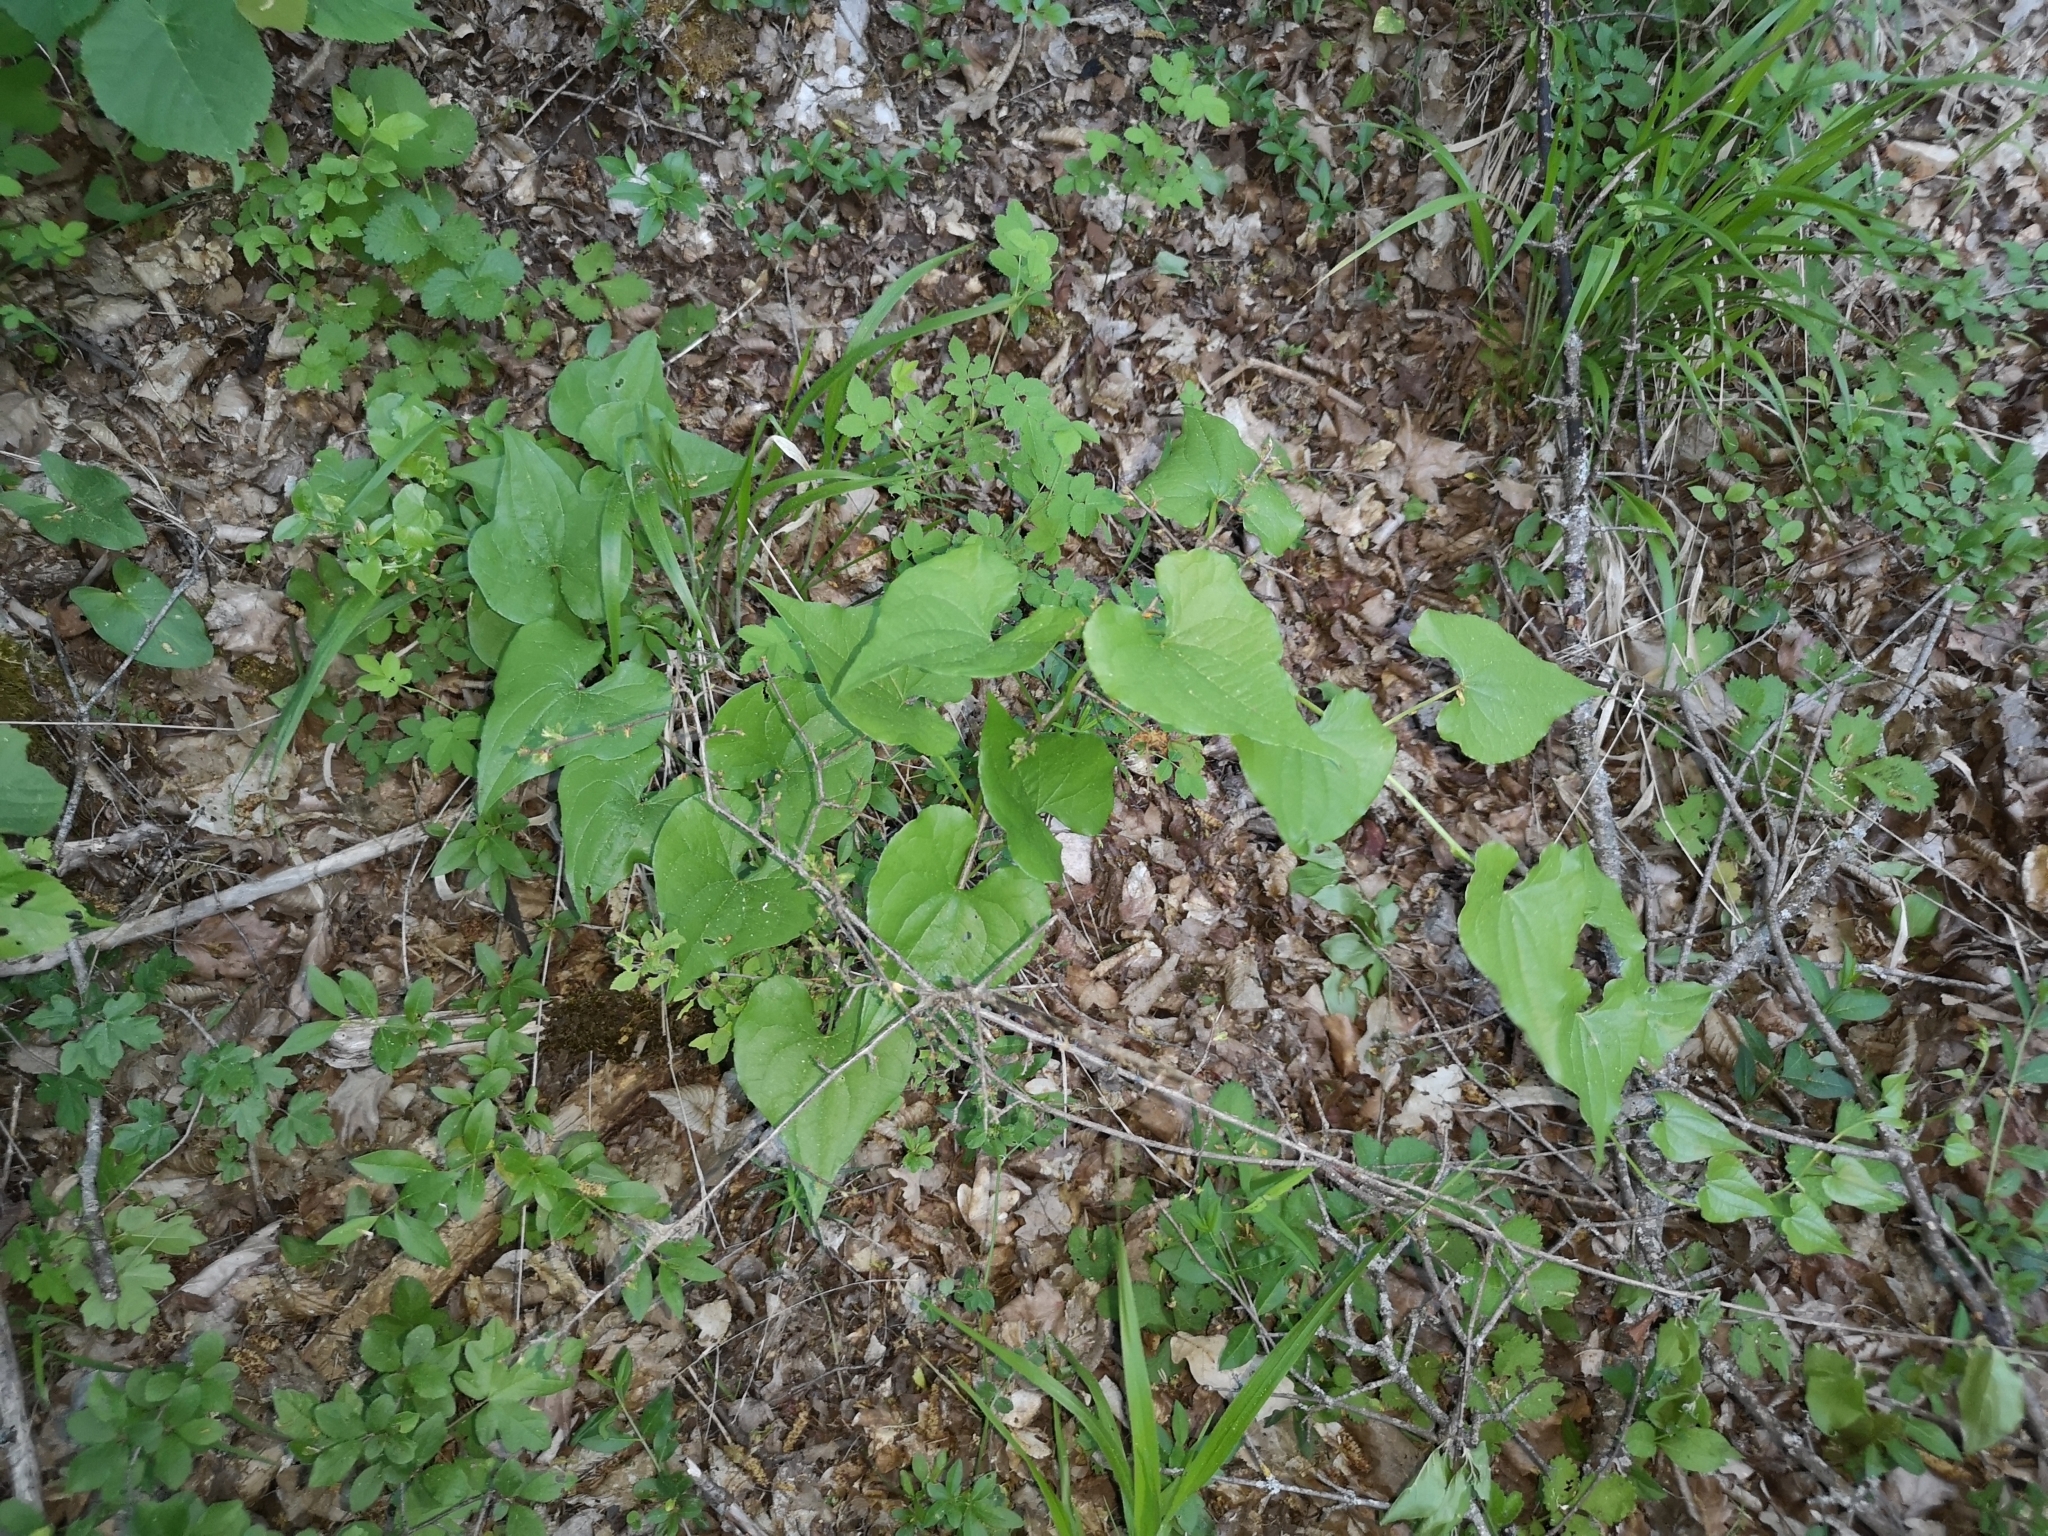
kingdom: Plantae
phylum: Tracheophyta
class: Liliopsida
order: Dioscoreales
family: Dioscoreaceae
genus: Dioscorea
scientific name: Dioscorea communis
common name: Black-bindweed
